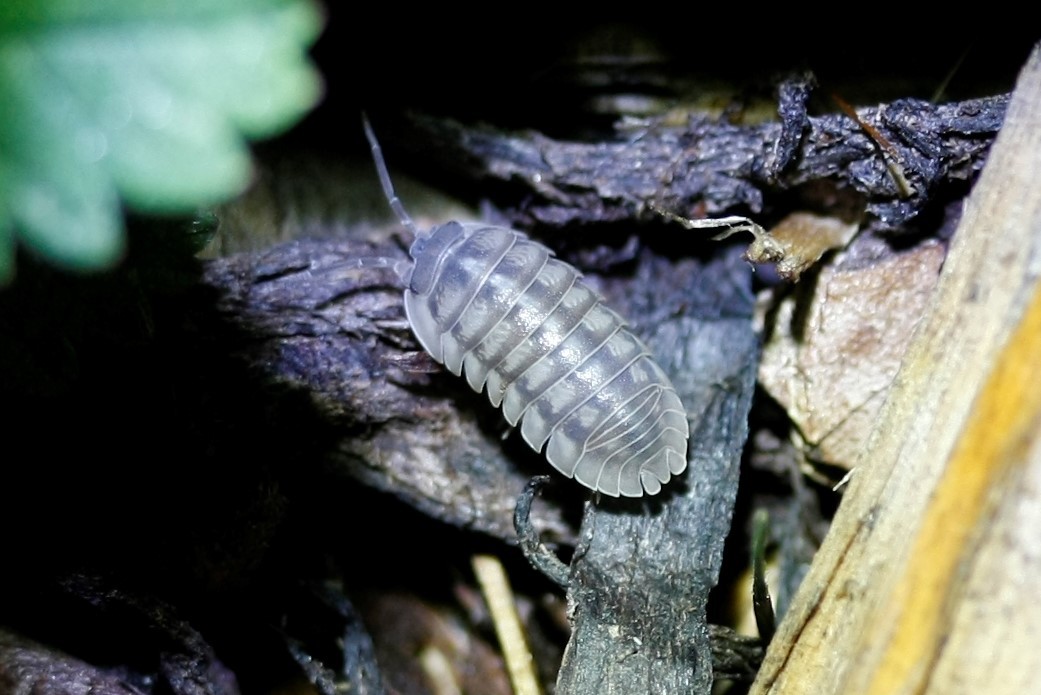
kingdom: Animalia
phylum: Arthropoda
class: Malacostraca
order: Isopoda
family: Armadillidiidae
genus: Armadillidium
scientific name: Armadillidium nasatum
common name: Isopod
